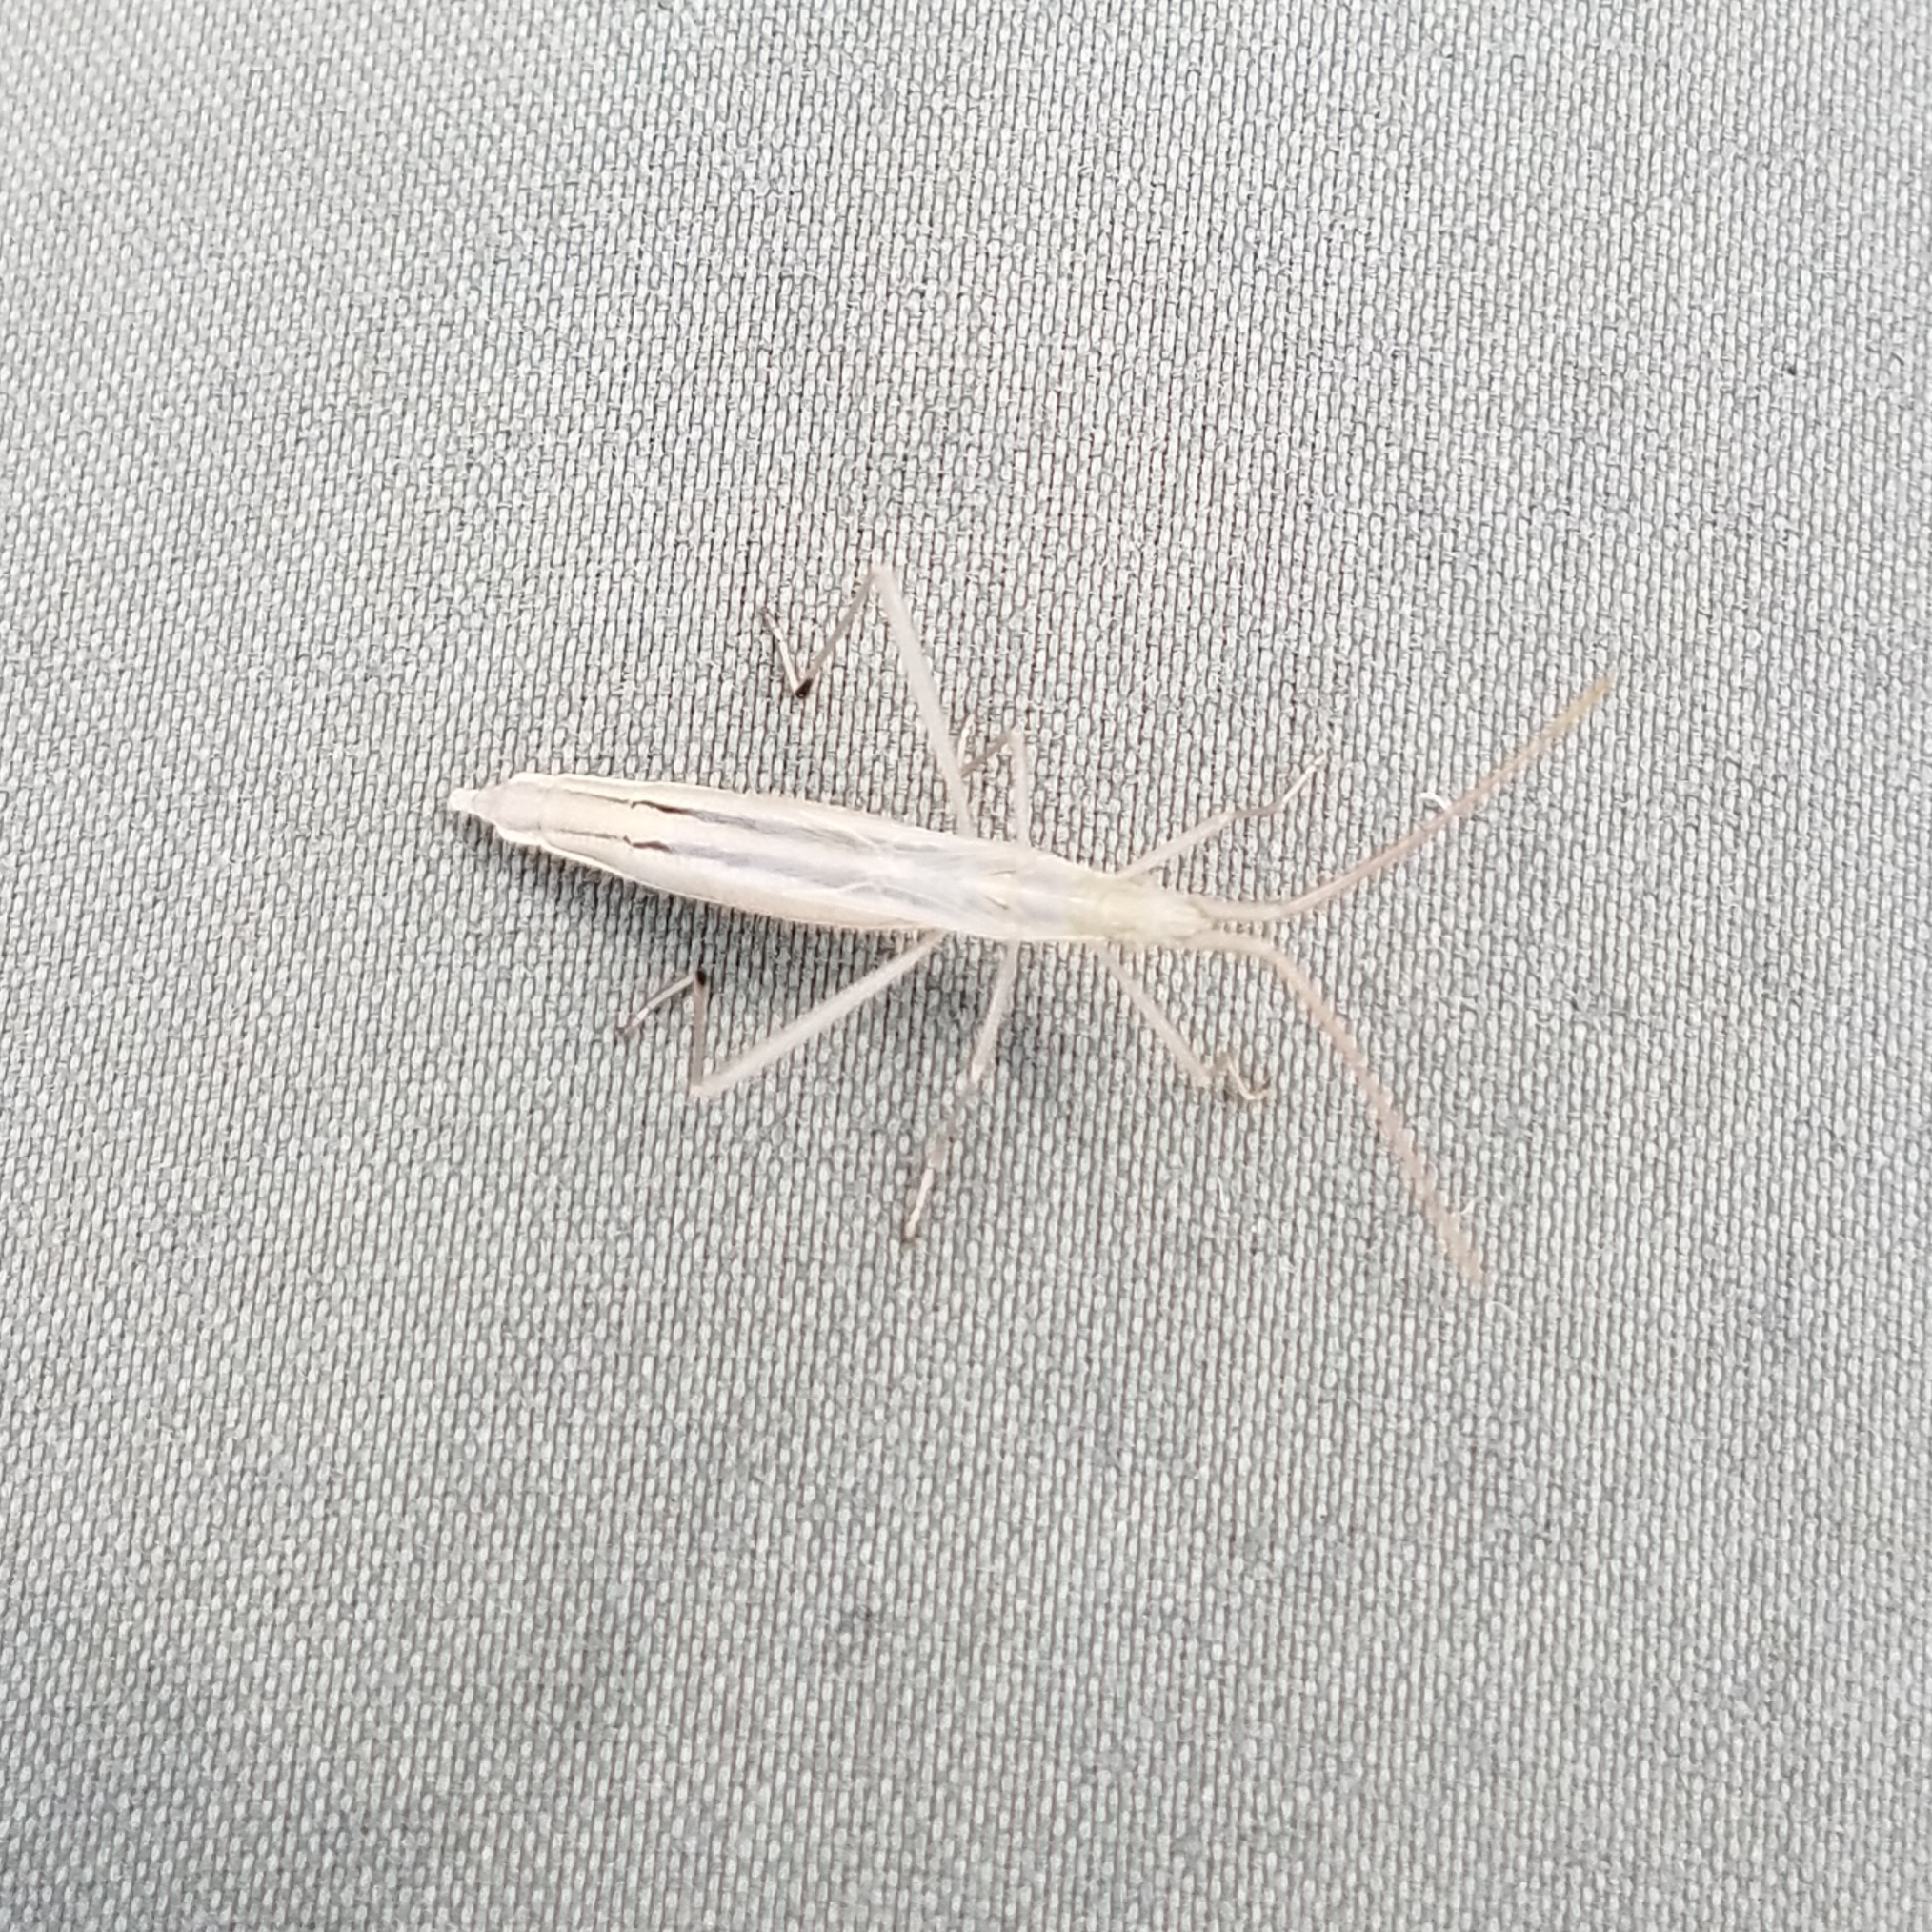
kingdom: Animalia
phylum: Arthropoda
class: Insecta
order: Hemiptera
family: Rhopalidae
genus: Chorosoma
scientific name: Chorosoma schillingii
